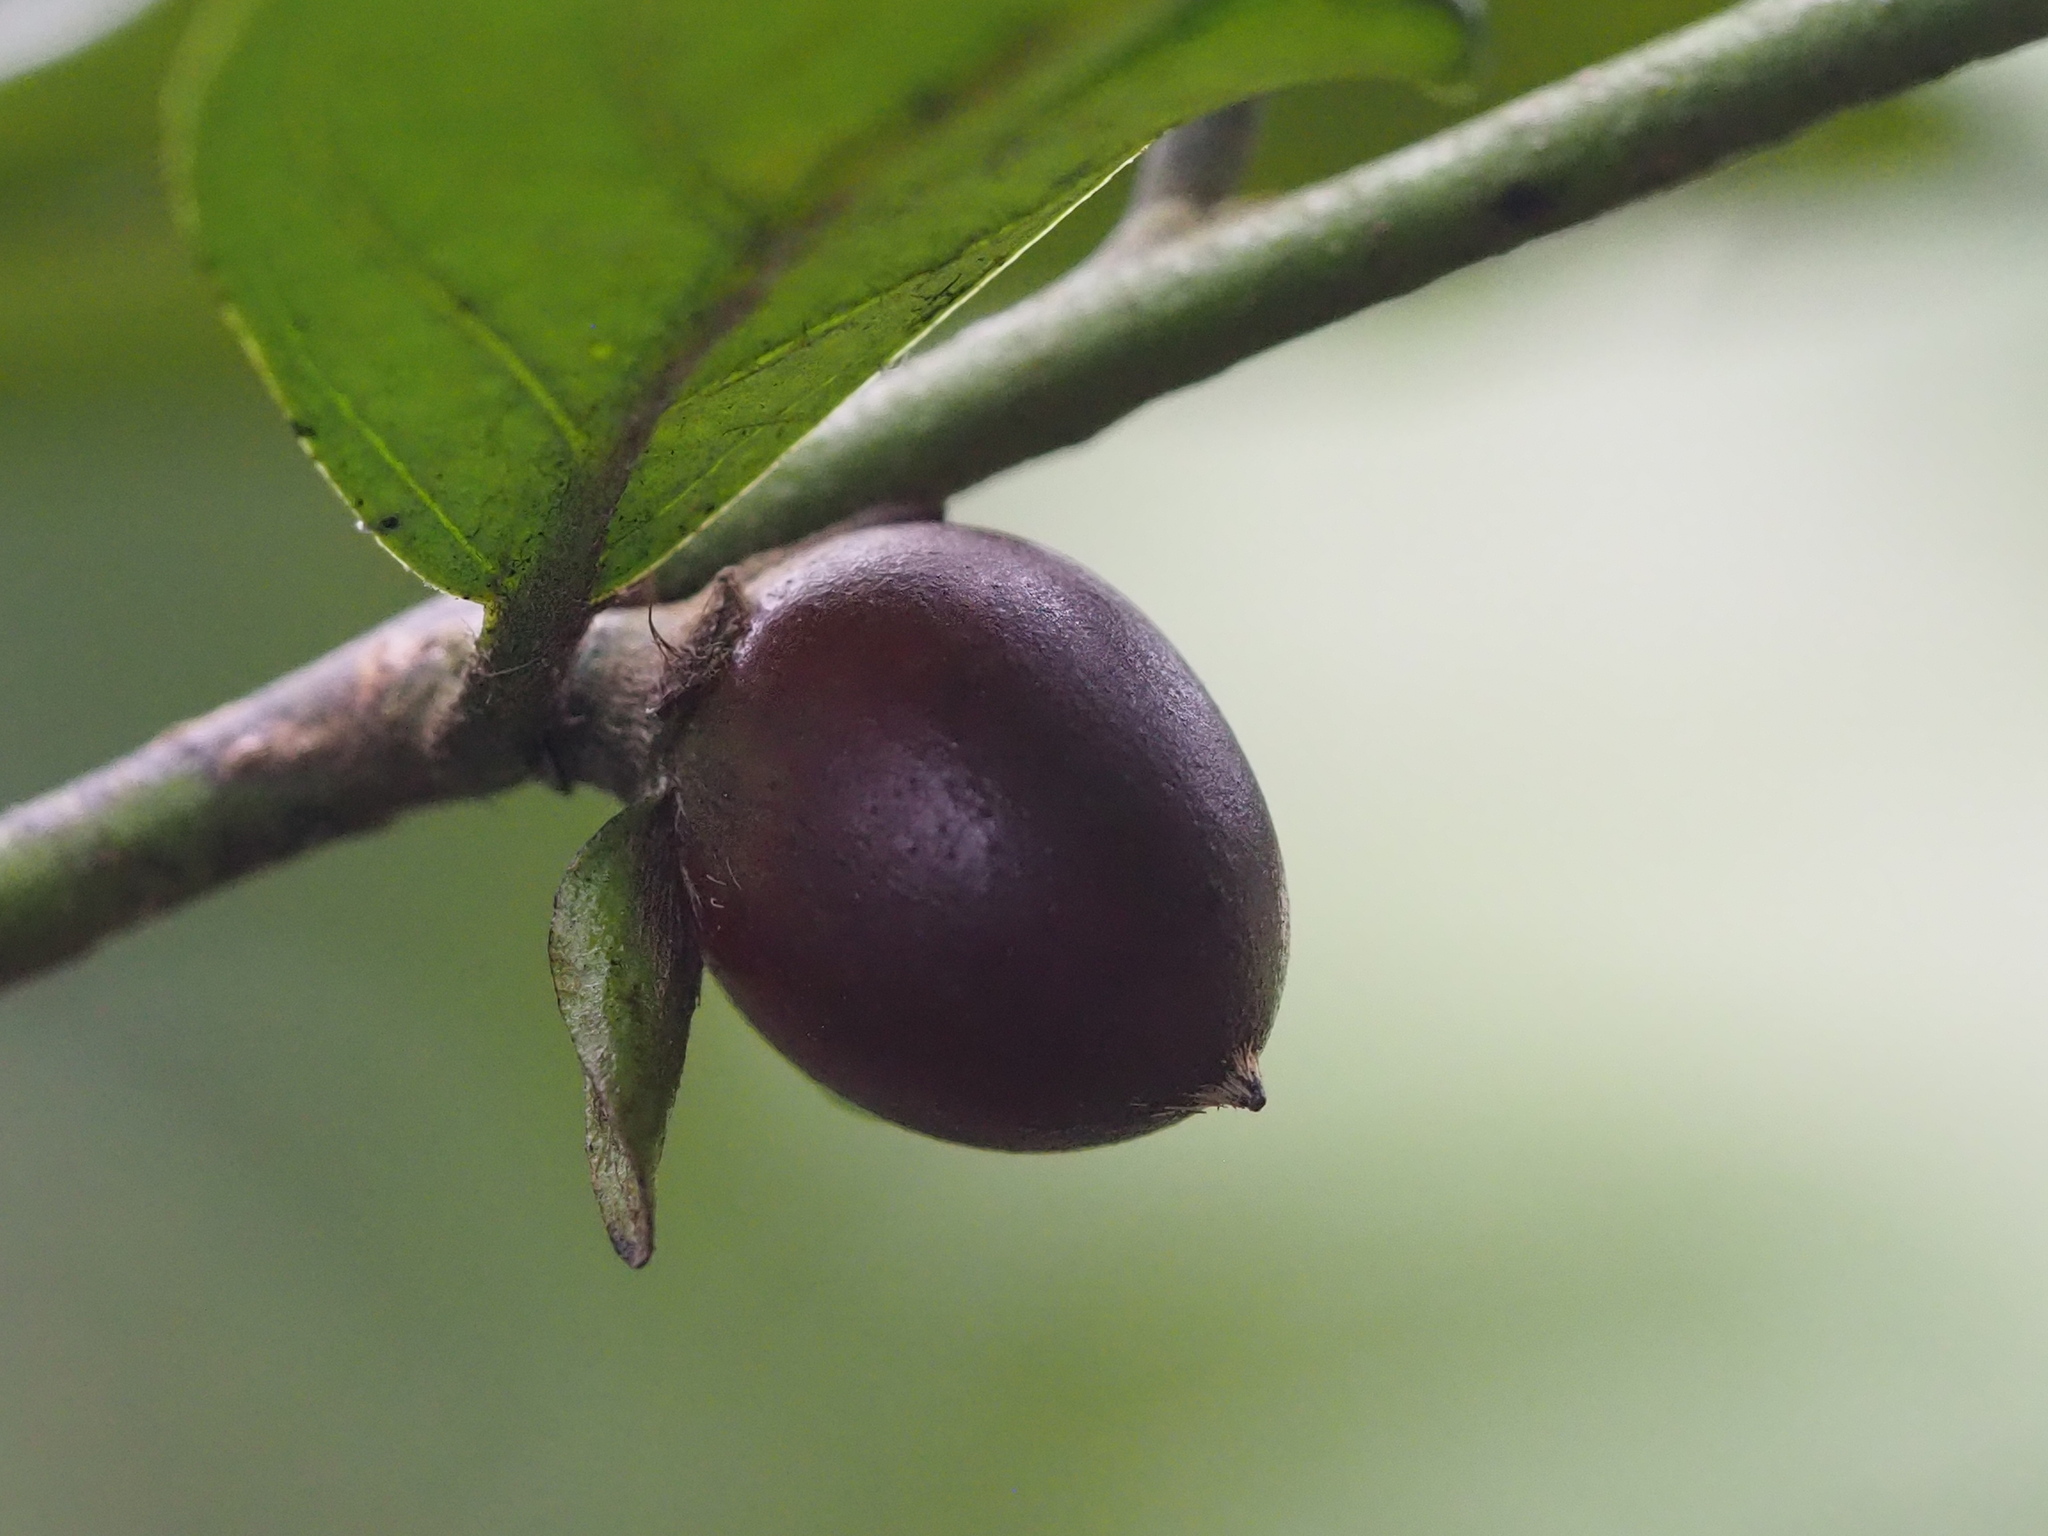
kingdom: Plantae
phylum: Tracheophyta
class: Magnoliopsida
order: Ericales
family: Ebenaceae
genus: Diospyros
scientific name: Diospyros eriantha
